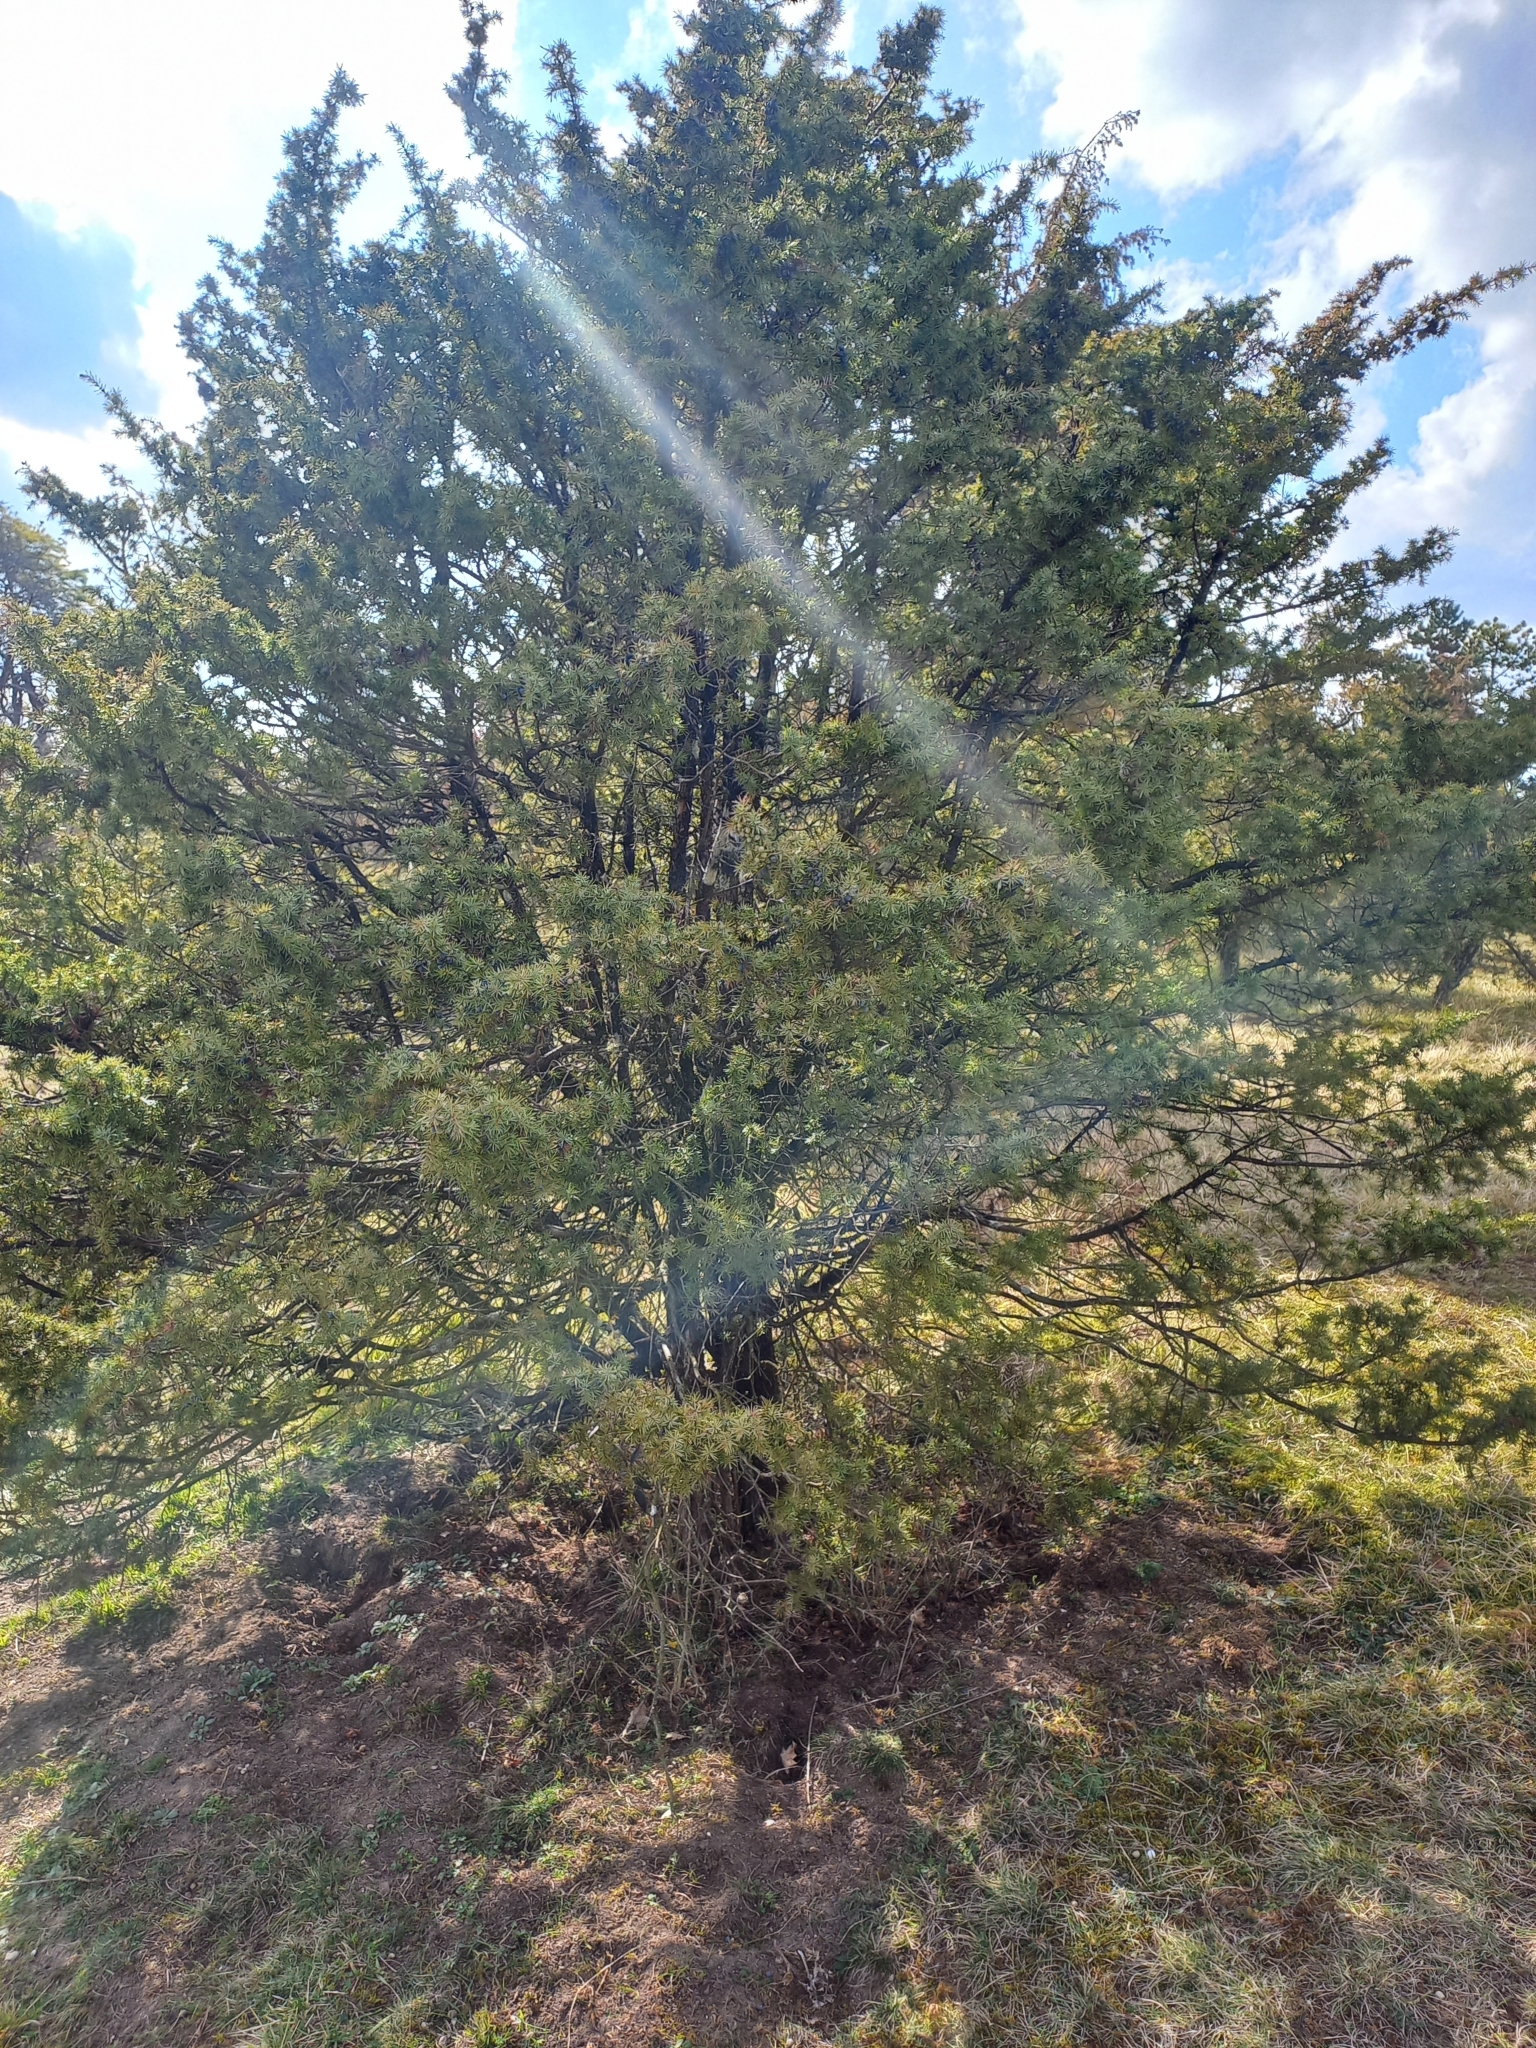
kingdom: Plantae
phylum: Tracheophyta
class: Pinopsida
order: Pinales
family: Cupressaceae
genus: Juniperus
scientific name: Juniperus communis
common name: Common juniper
